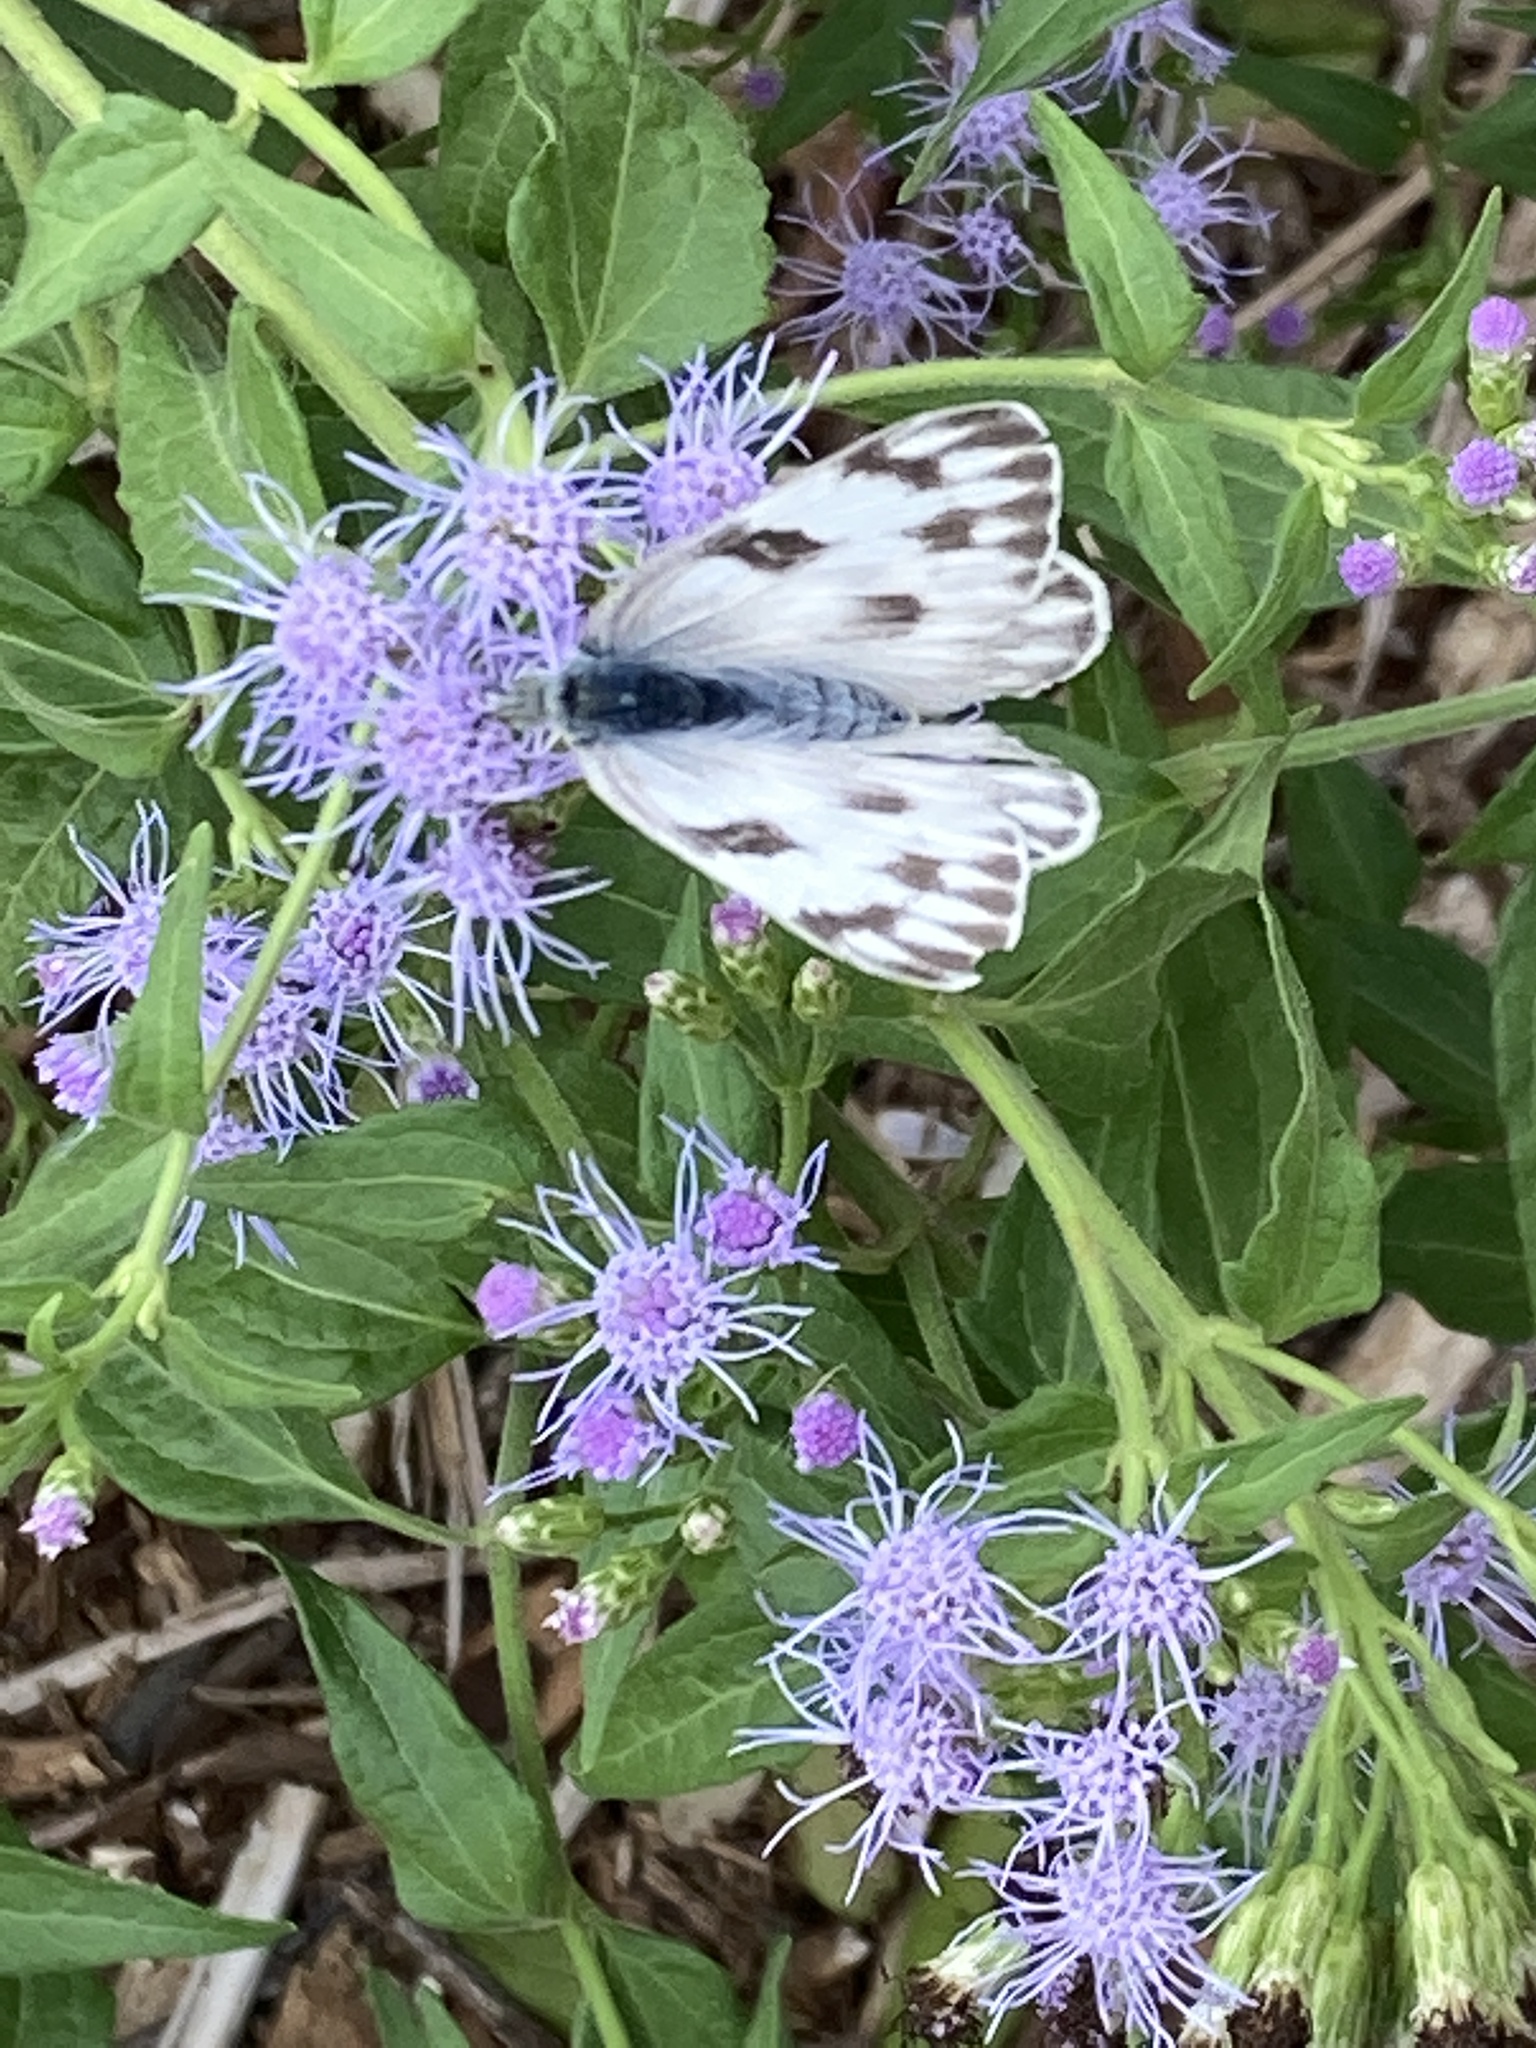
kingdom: Animalia
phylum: Arthropoda
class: Insecta
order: Lepidoptera
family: Pieridae
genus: Pontia
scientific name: Pontia protodice
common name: Checkered white
